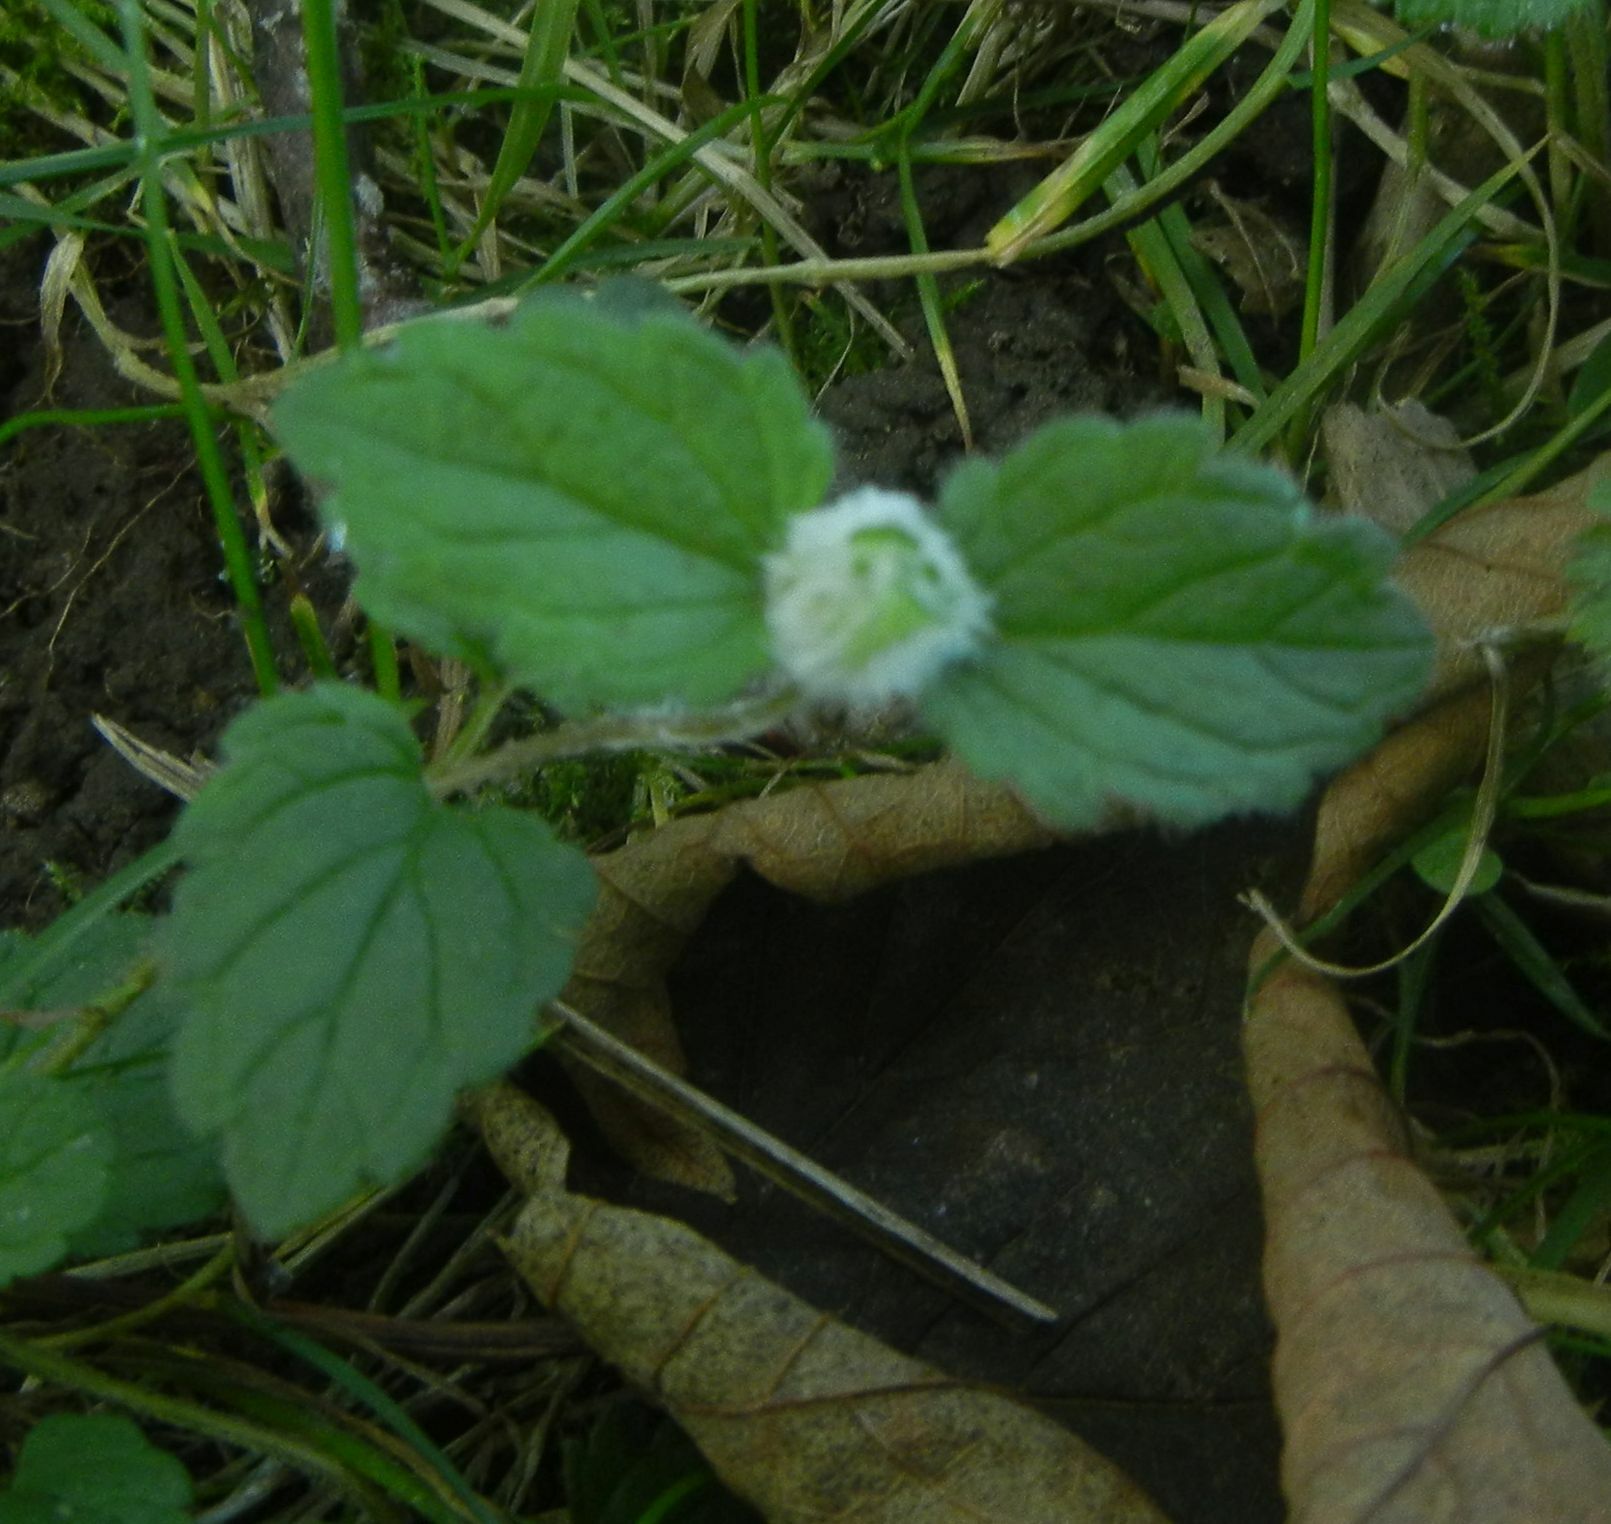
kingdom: Animalia
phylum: Arthropoda
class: Insecta
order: Diptera
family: Cecidomyiidae
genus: Jaapiella
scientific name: Jaapiella veronicae
